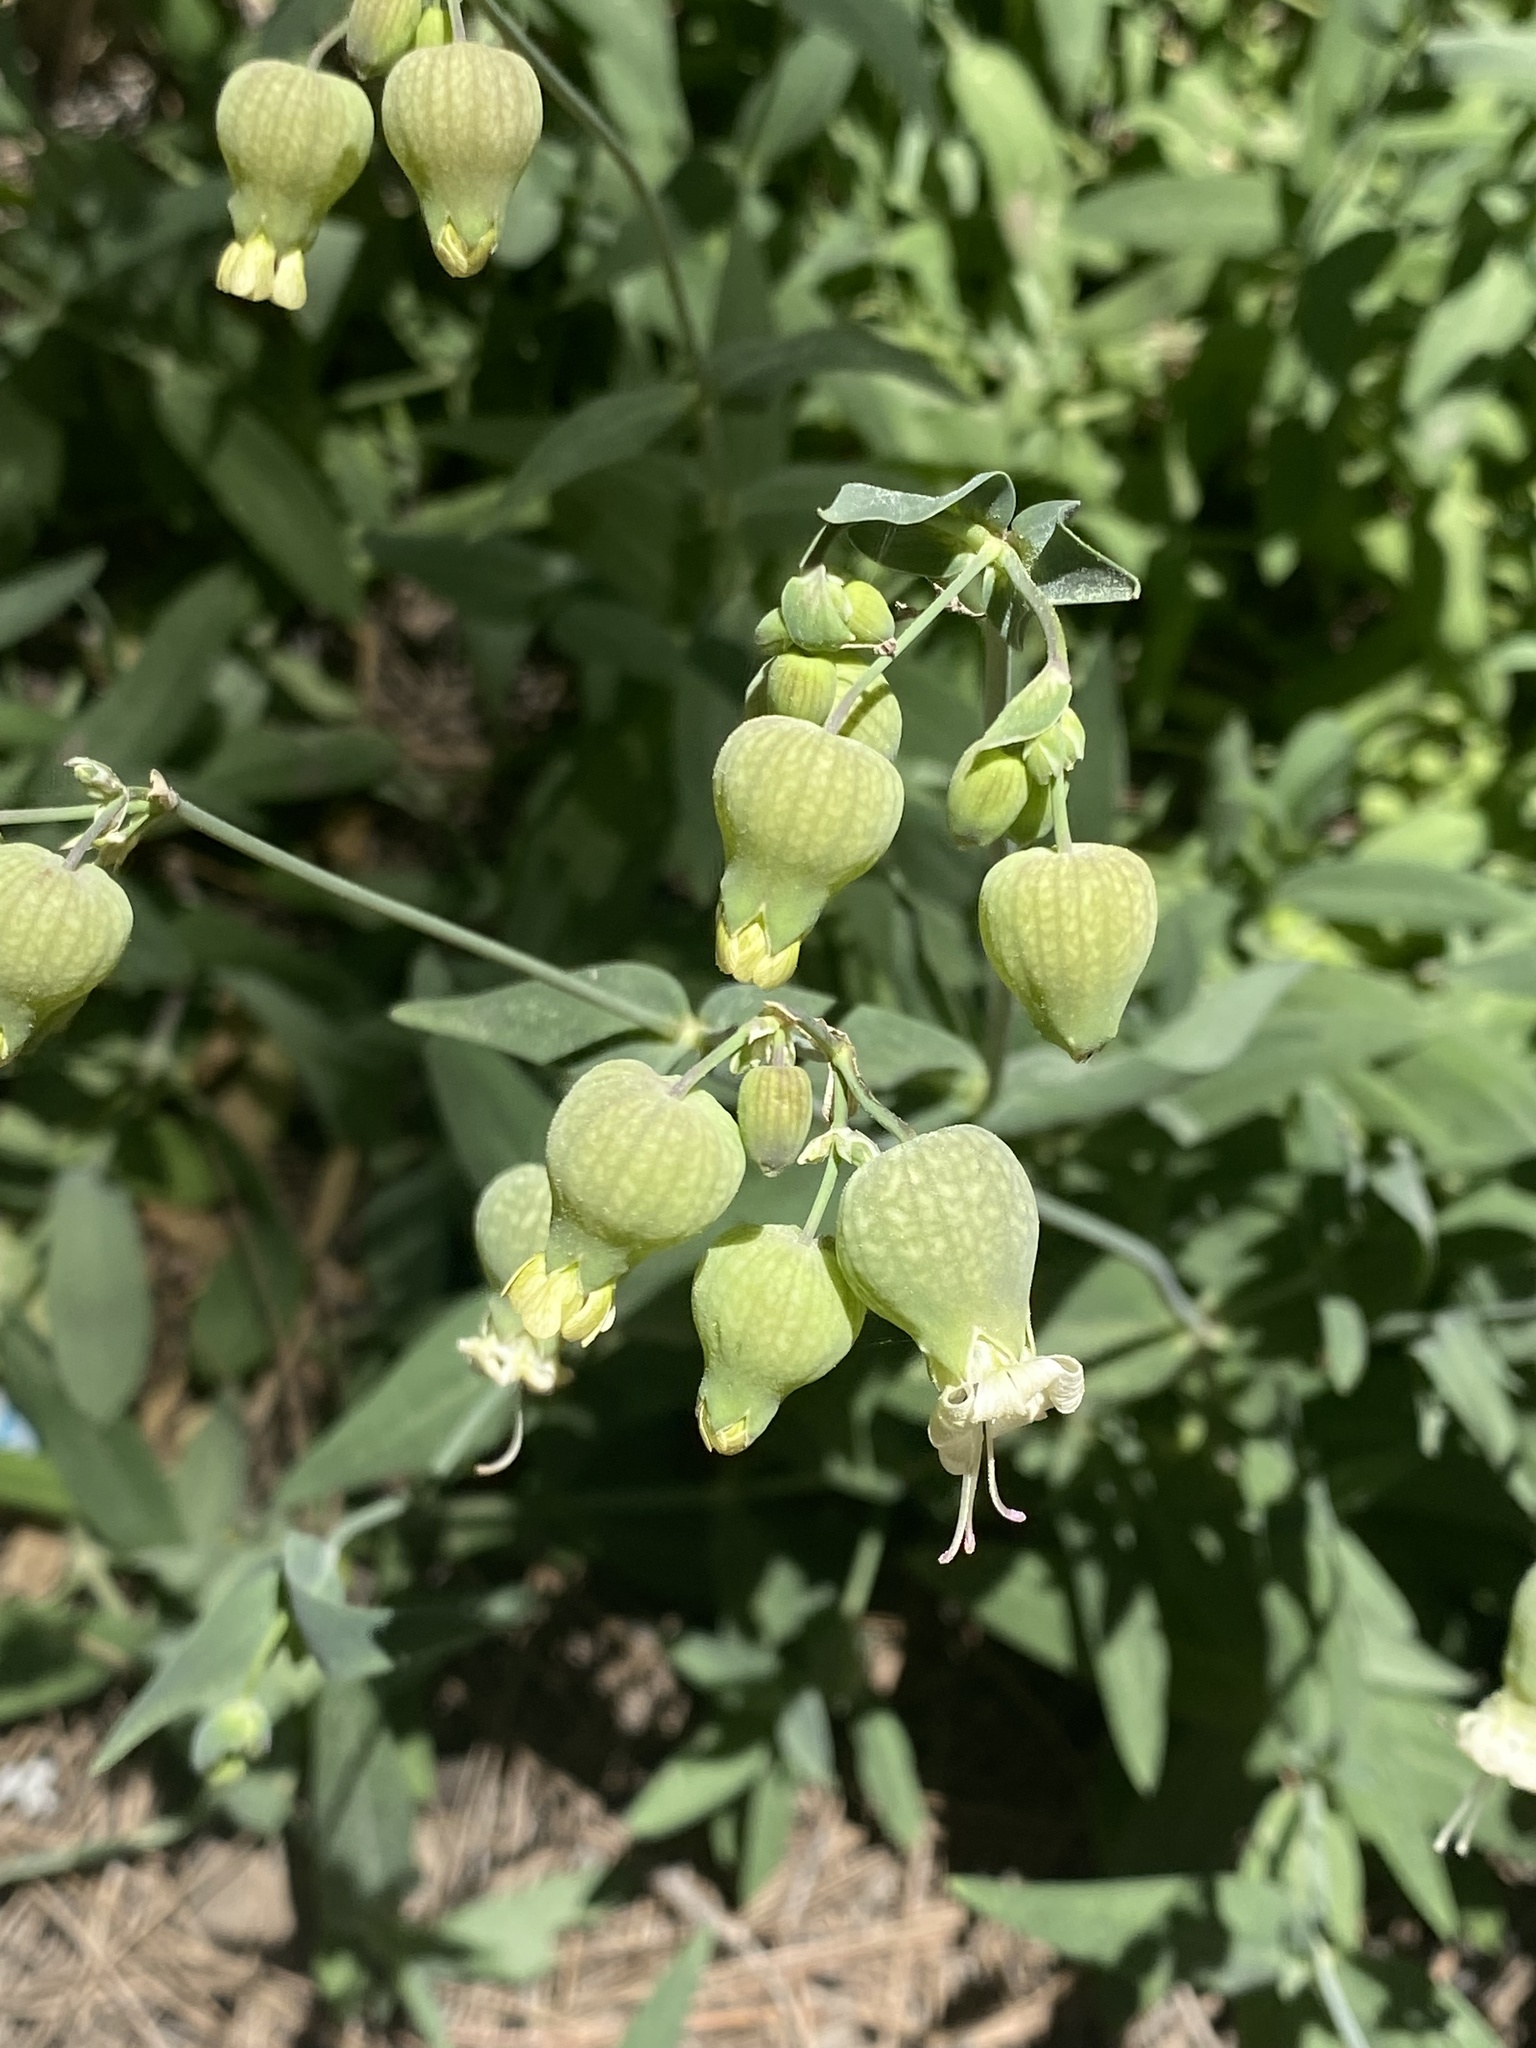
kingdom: Plantae
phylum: Tracheophyta
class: Magnoliopsida
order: Caryophyllales
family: Caryophyllaceae
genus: Silene
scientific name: Silene vulgaris
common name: Bladder campion
